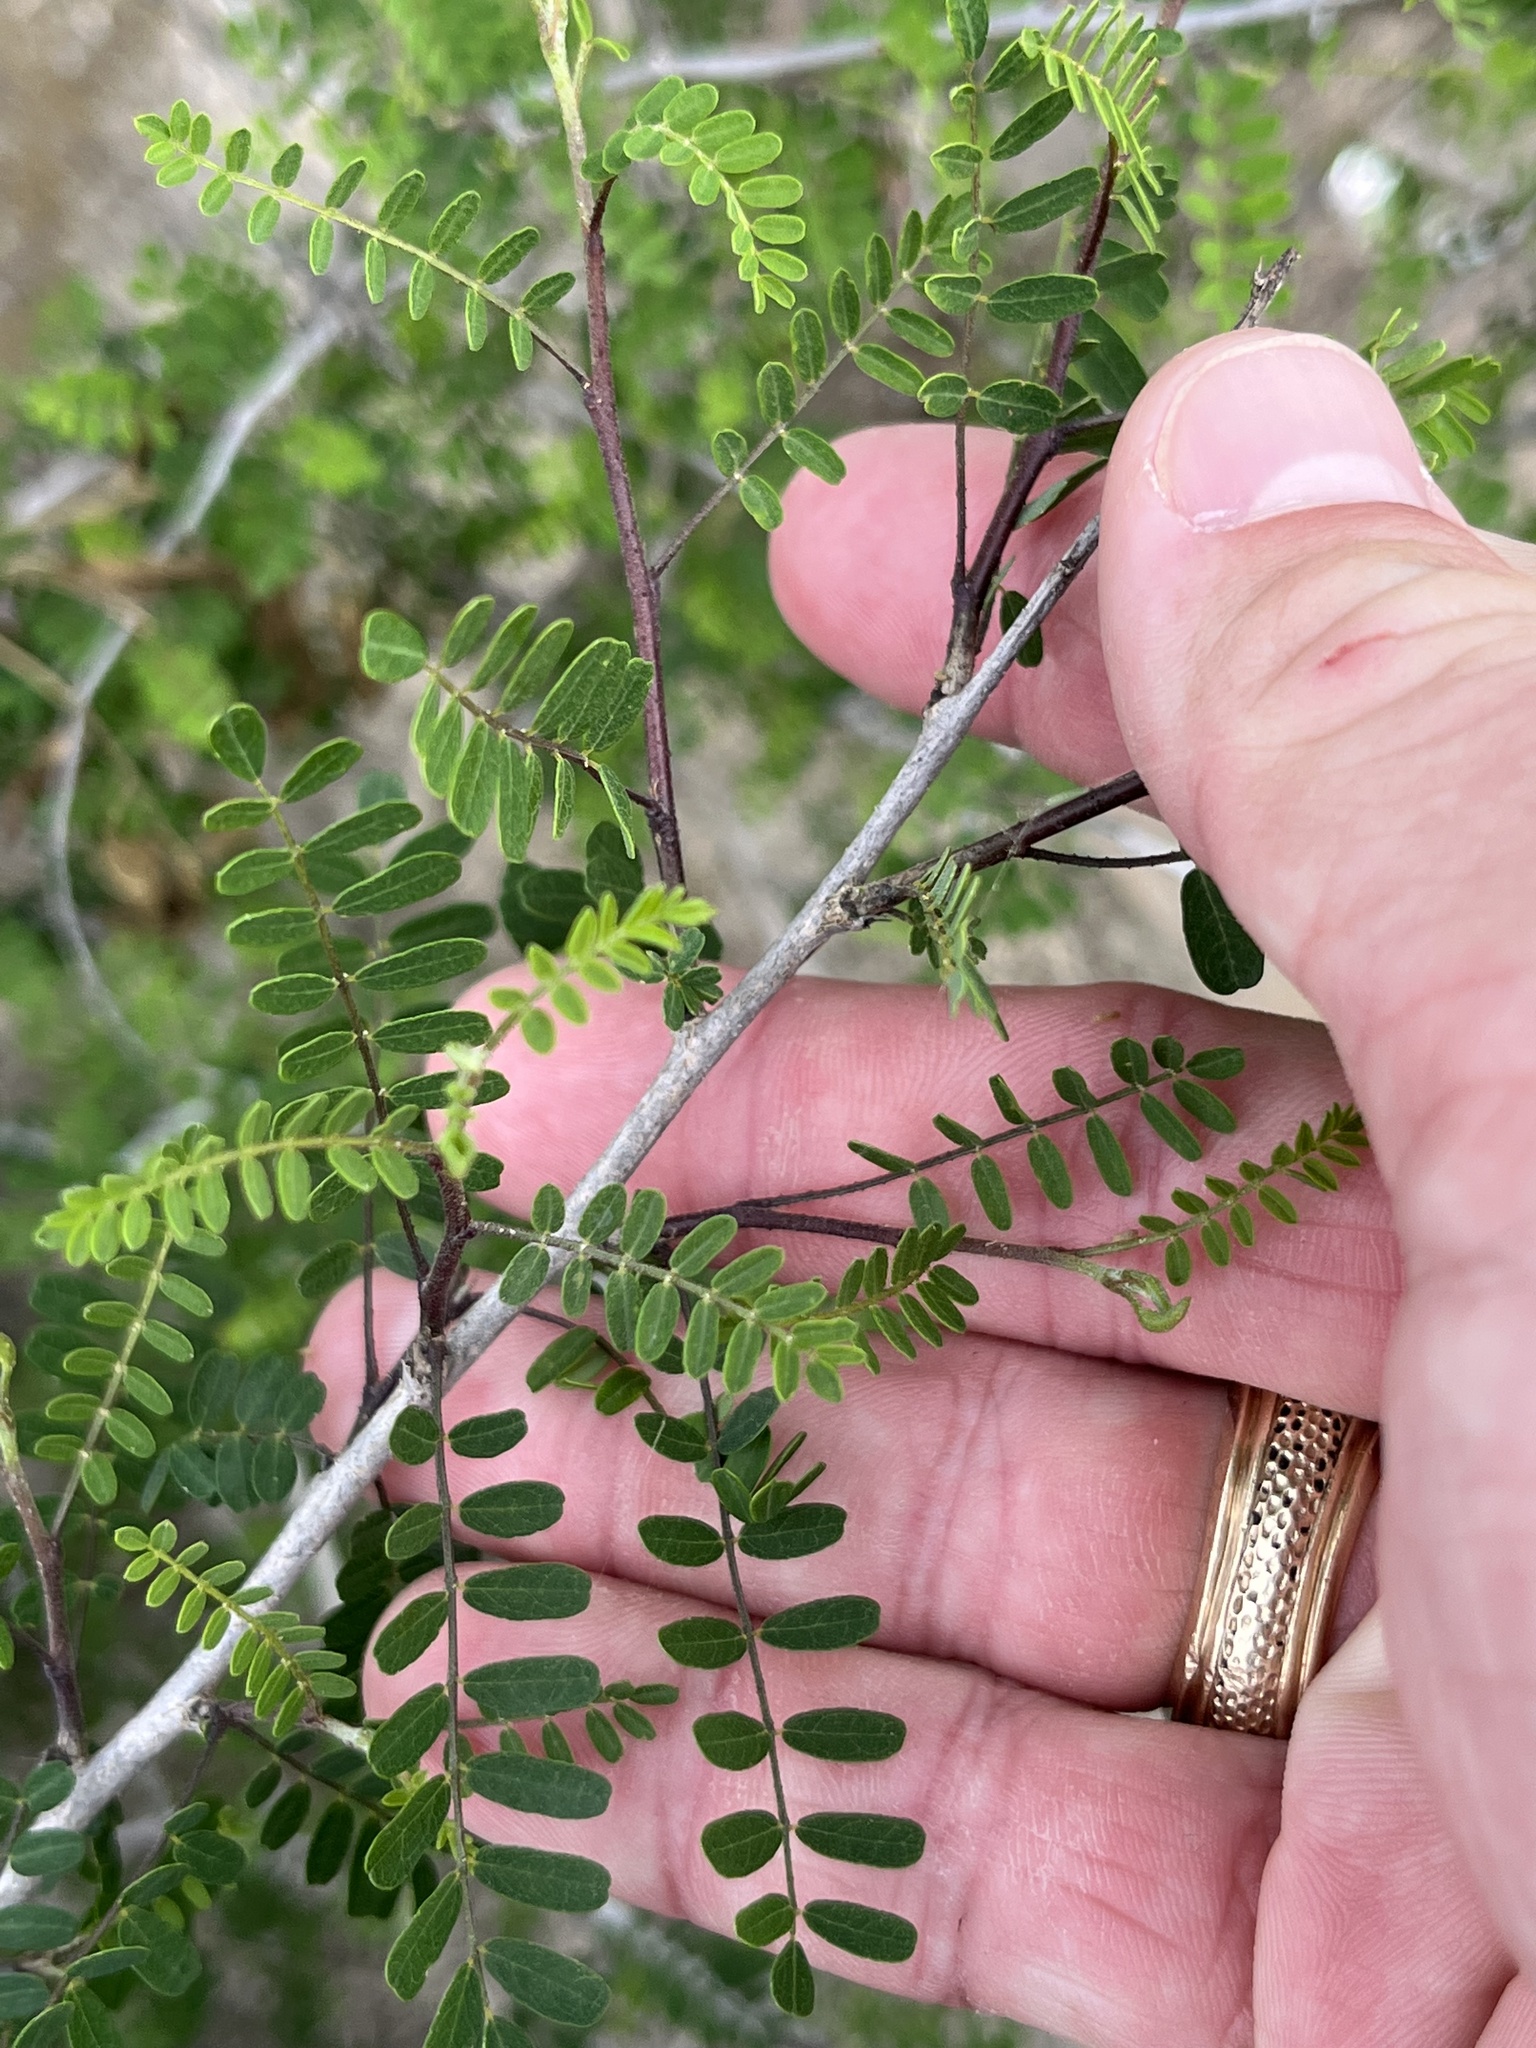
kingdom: Plantae
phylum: Tracheophyta
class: Magnoliopsida
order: Fabales
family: Fabaceae
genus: Eysenhardtia
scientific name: Eysenhardtia texana
